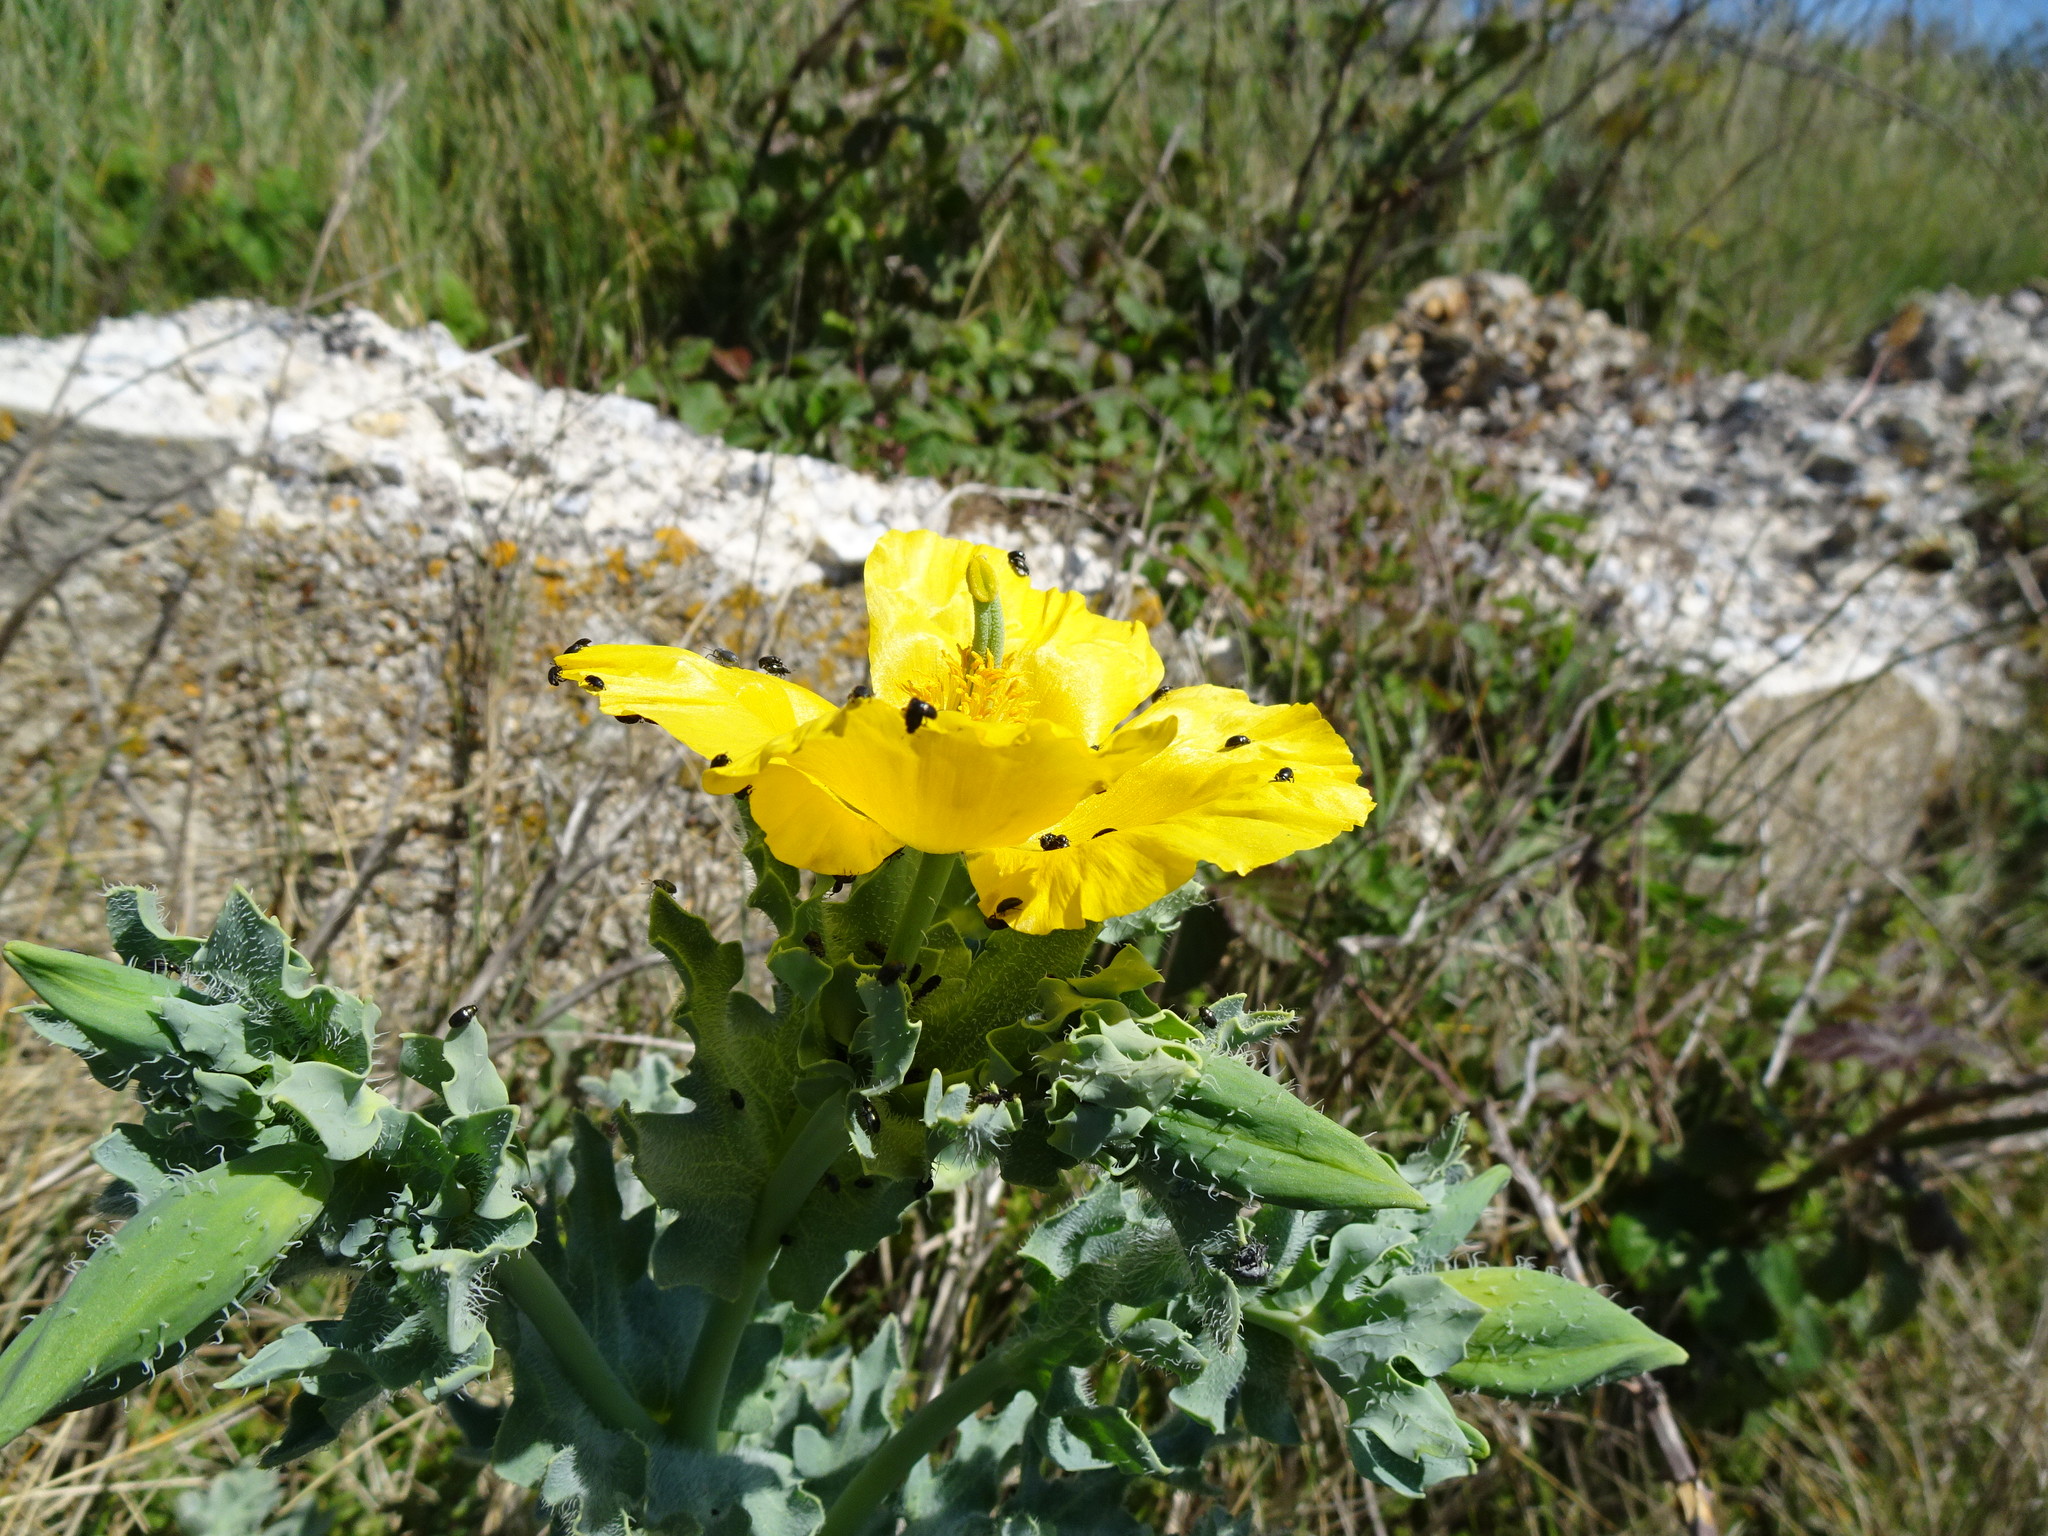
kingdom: Plantae
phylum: Tracheophyta
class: Magnoliopsida
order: Ranunculales
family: Papaveraceae
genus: Glaucium
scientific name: Glaucium flavum
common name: Yellow horned-poppy
